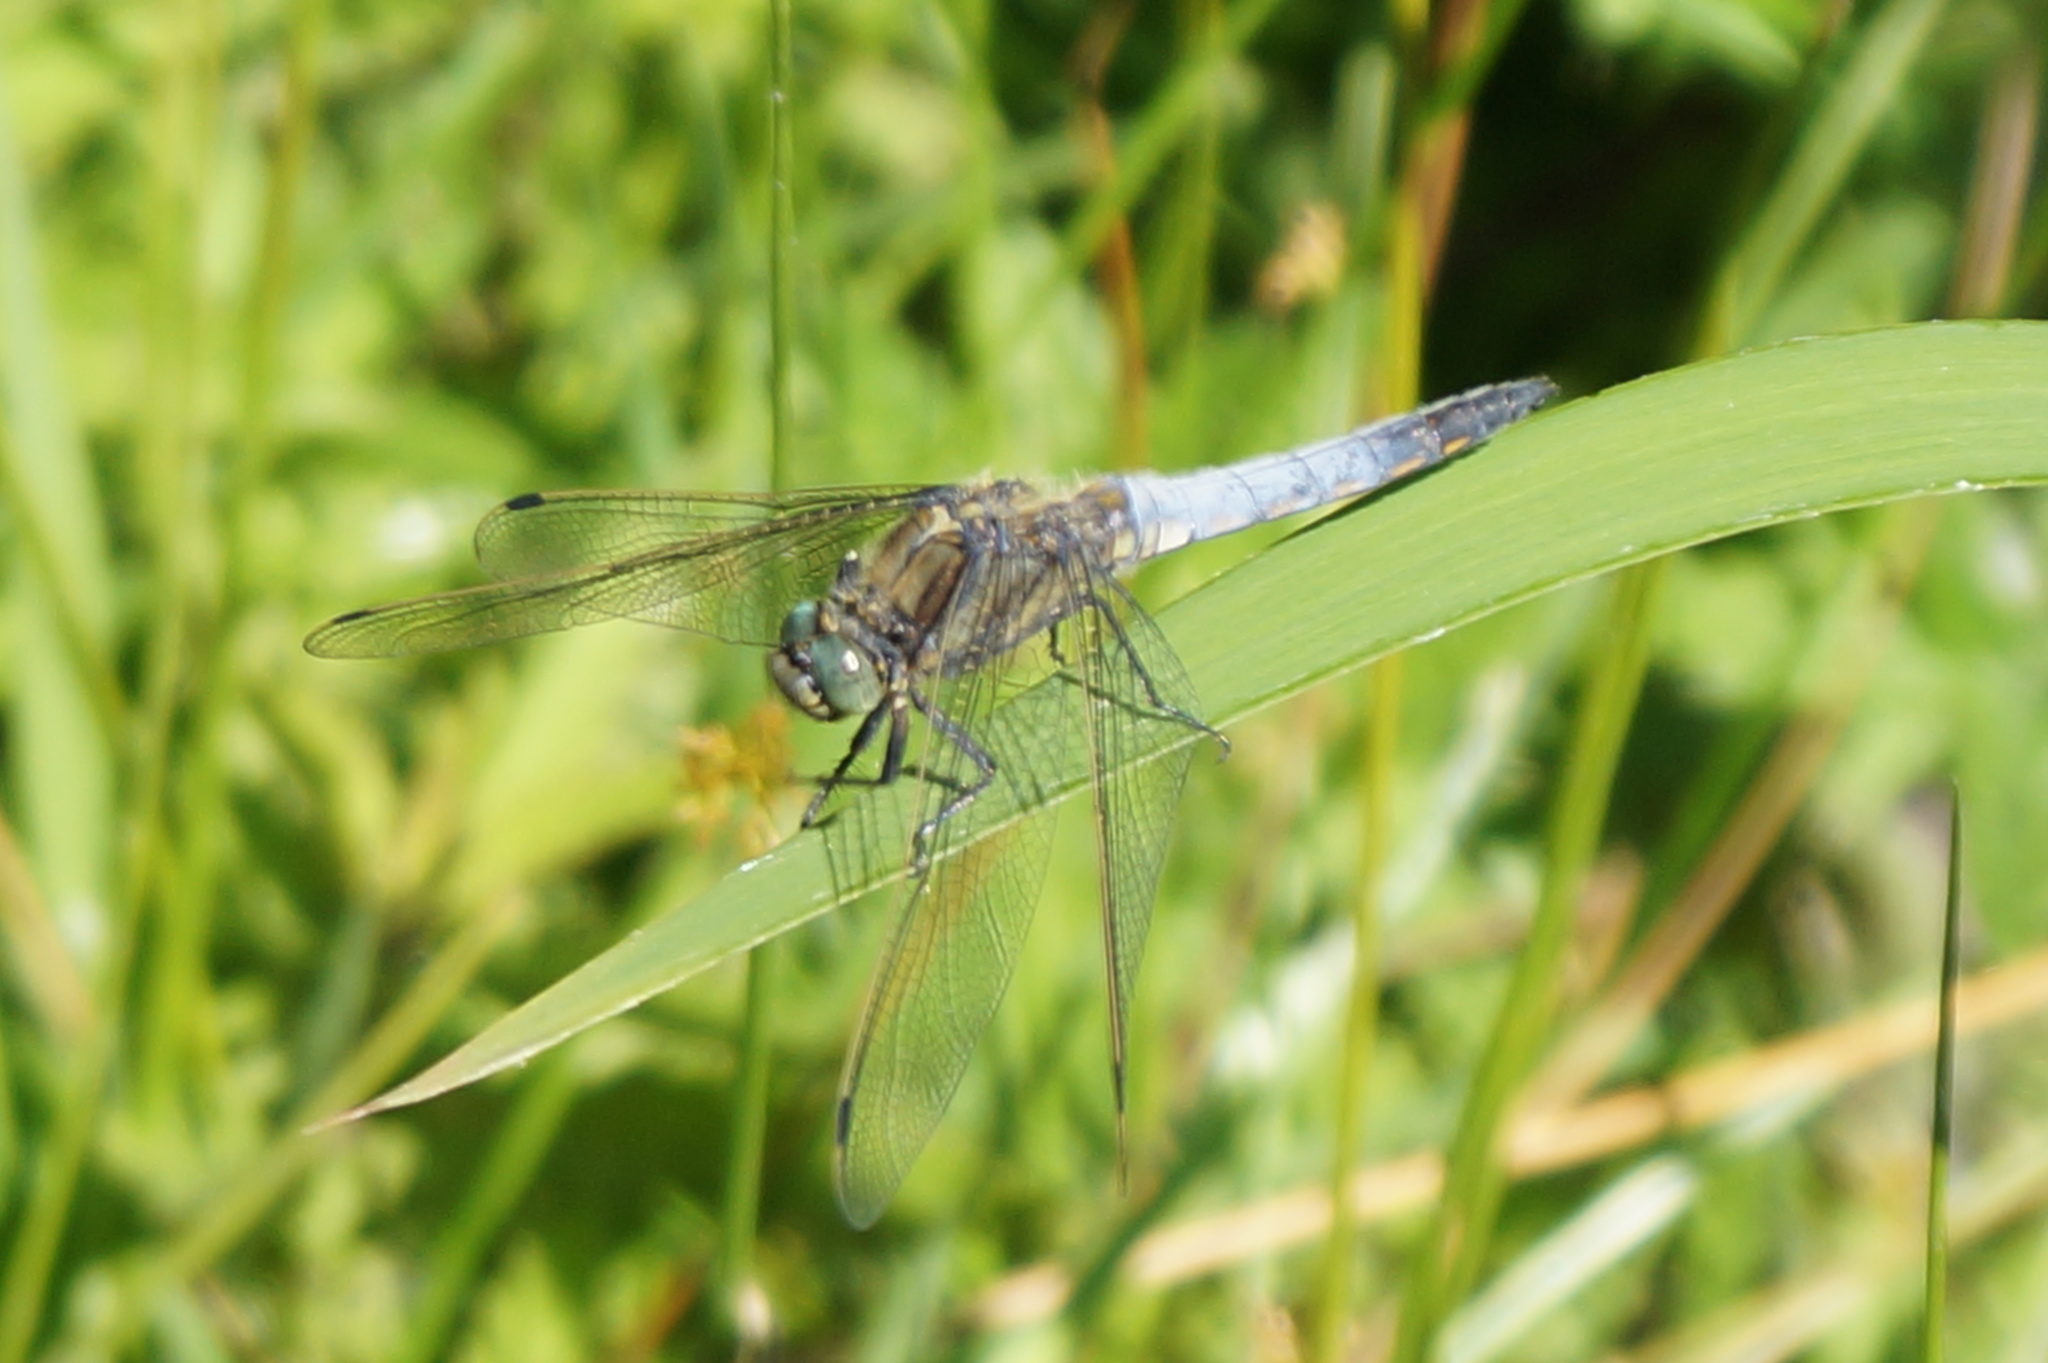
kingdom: Animalia
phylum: Arthropoda
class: Insecta
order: Odonata
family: Libellulidae
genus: Orthetrum
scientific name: Orthetrum cancellatum
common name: Black-tailed skimmer
